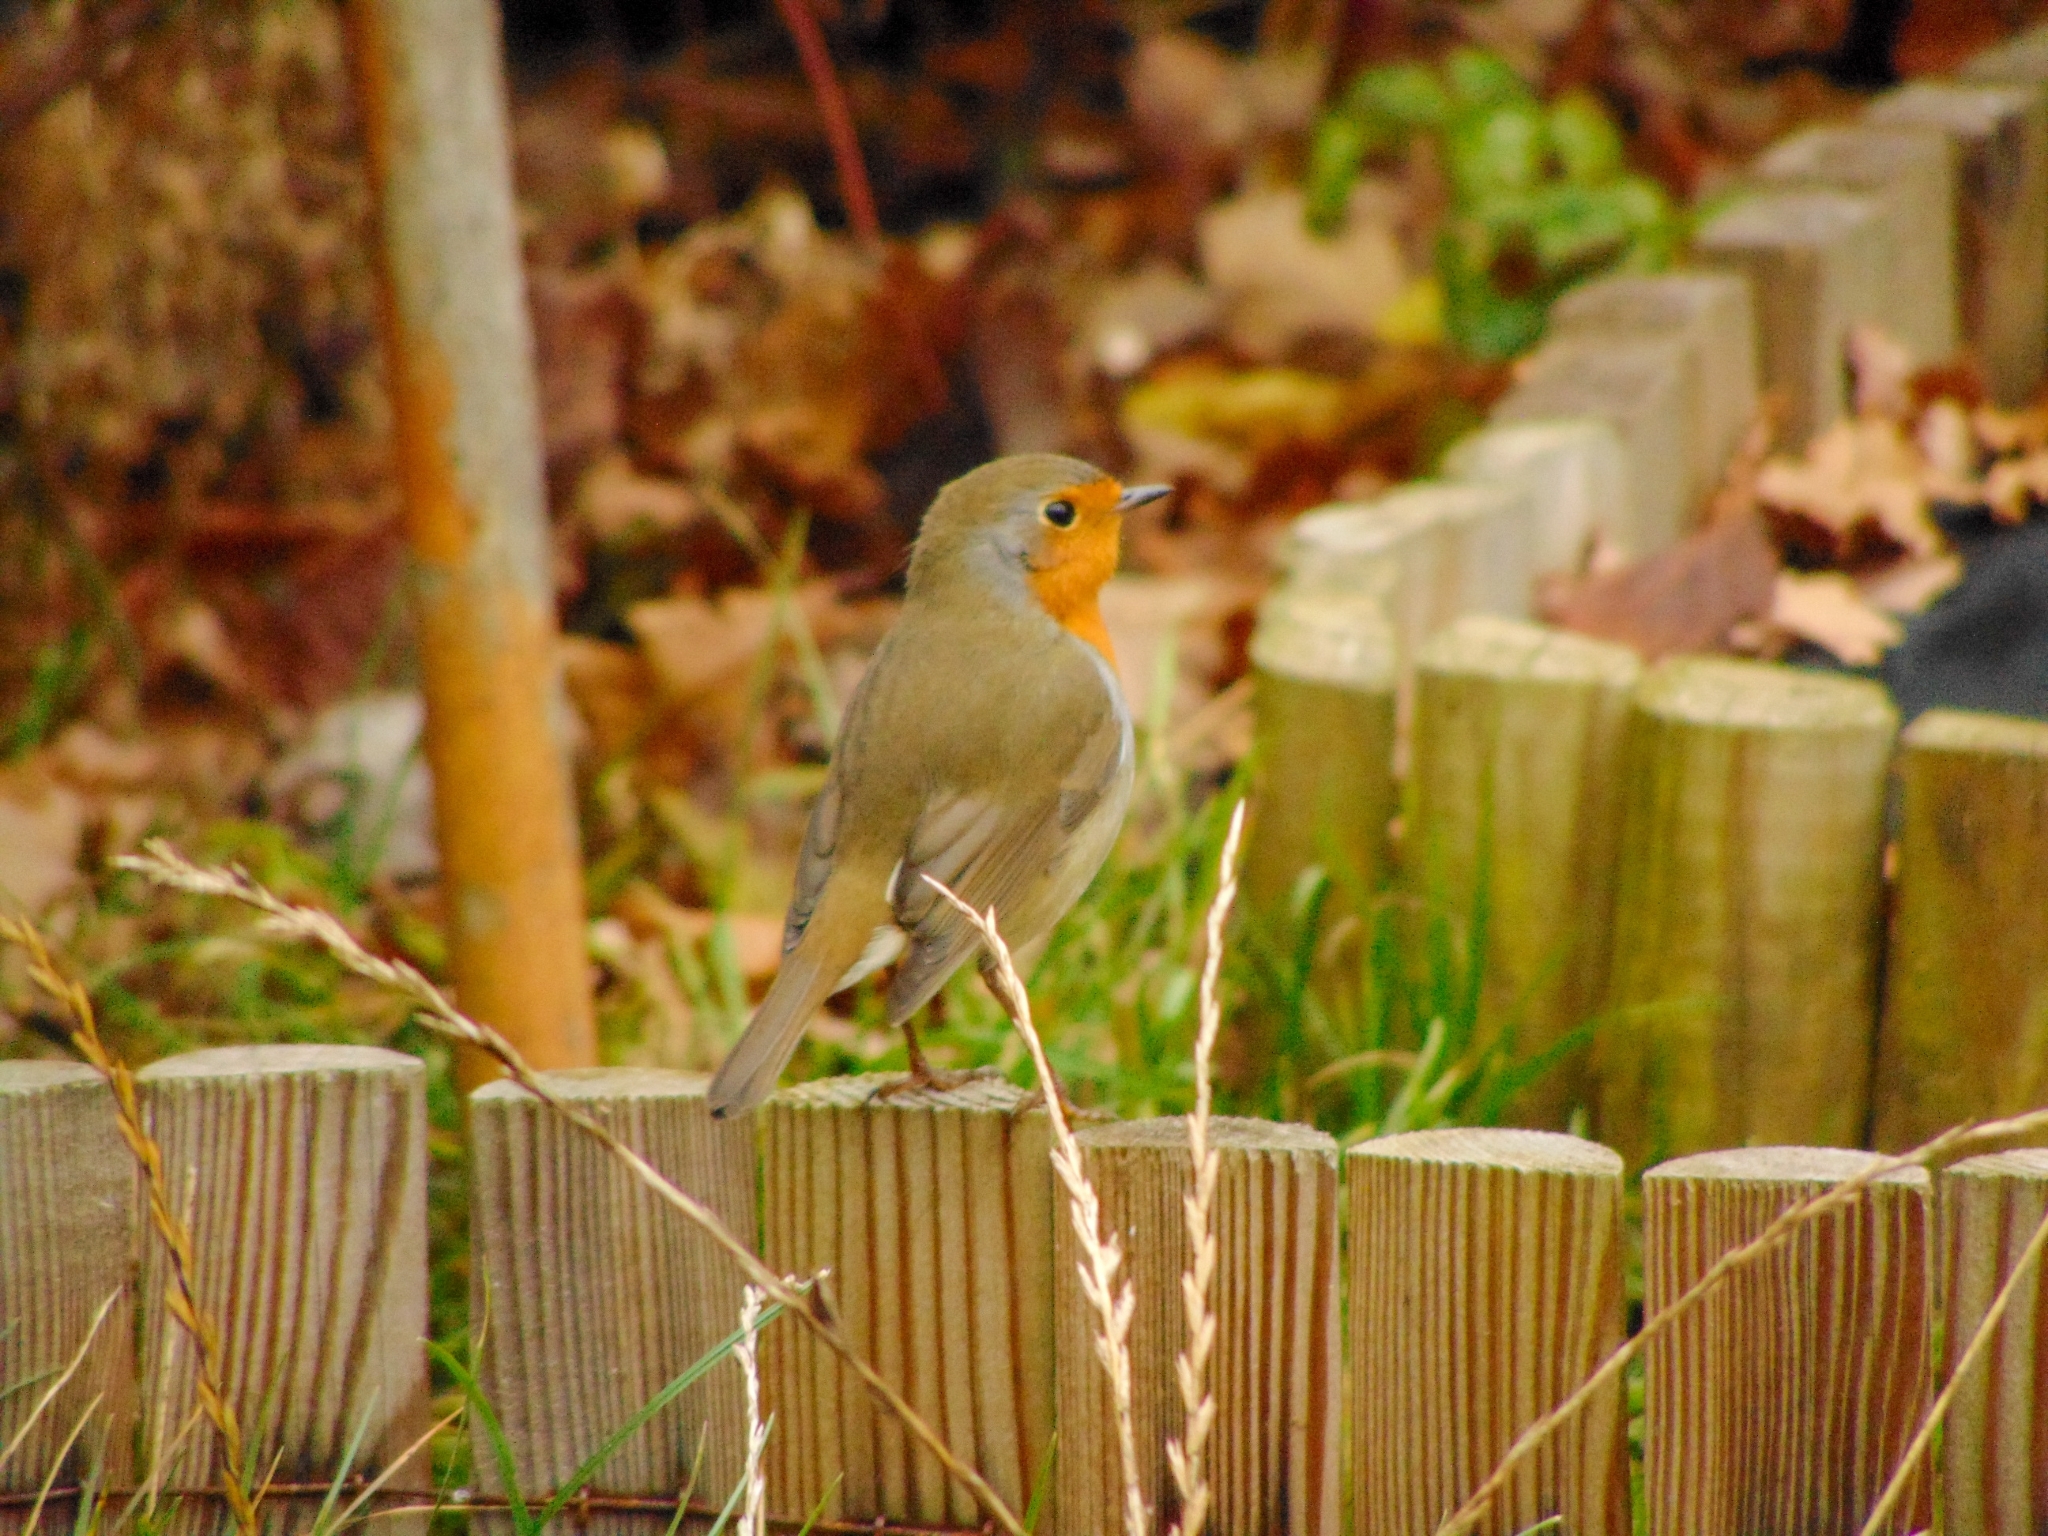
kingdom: Animalia
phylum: Chordata
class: Aves
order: Passeriformes
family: Muscicapidae
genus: Erithacus
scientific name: Erithacus rubecula
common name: European robin
